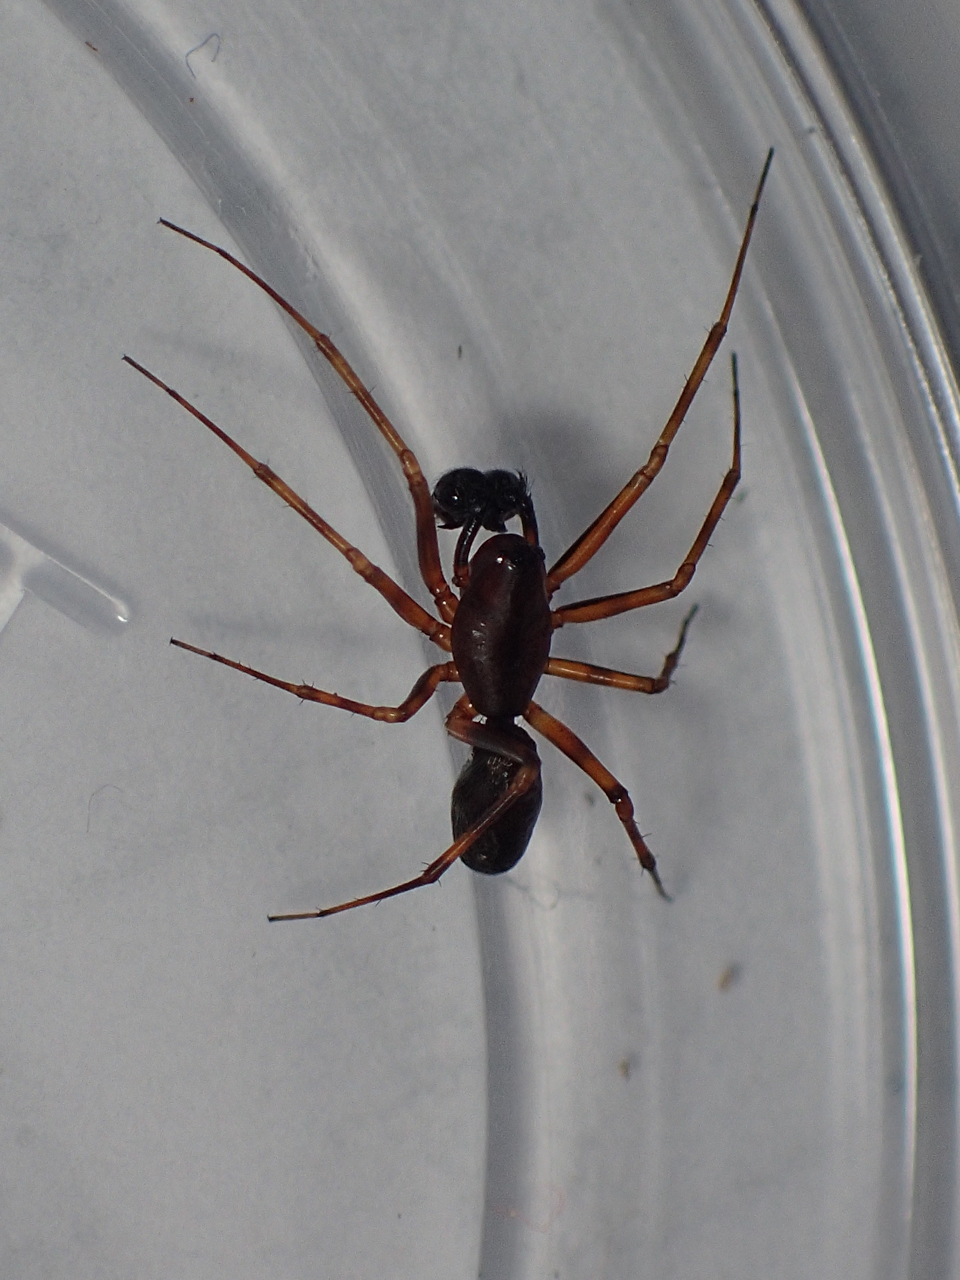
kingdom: Animalia
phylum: Arthropoda
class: Arachnida
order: Araneae
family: Linyphiidae
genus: Neriene
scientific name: Neriene clathrata
